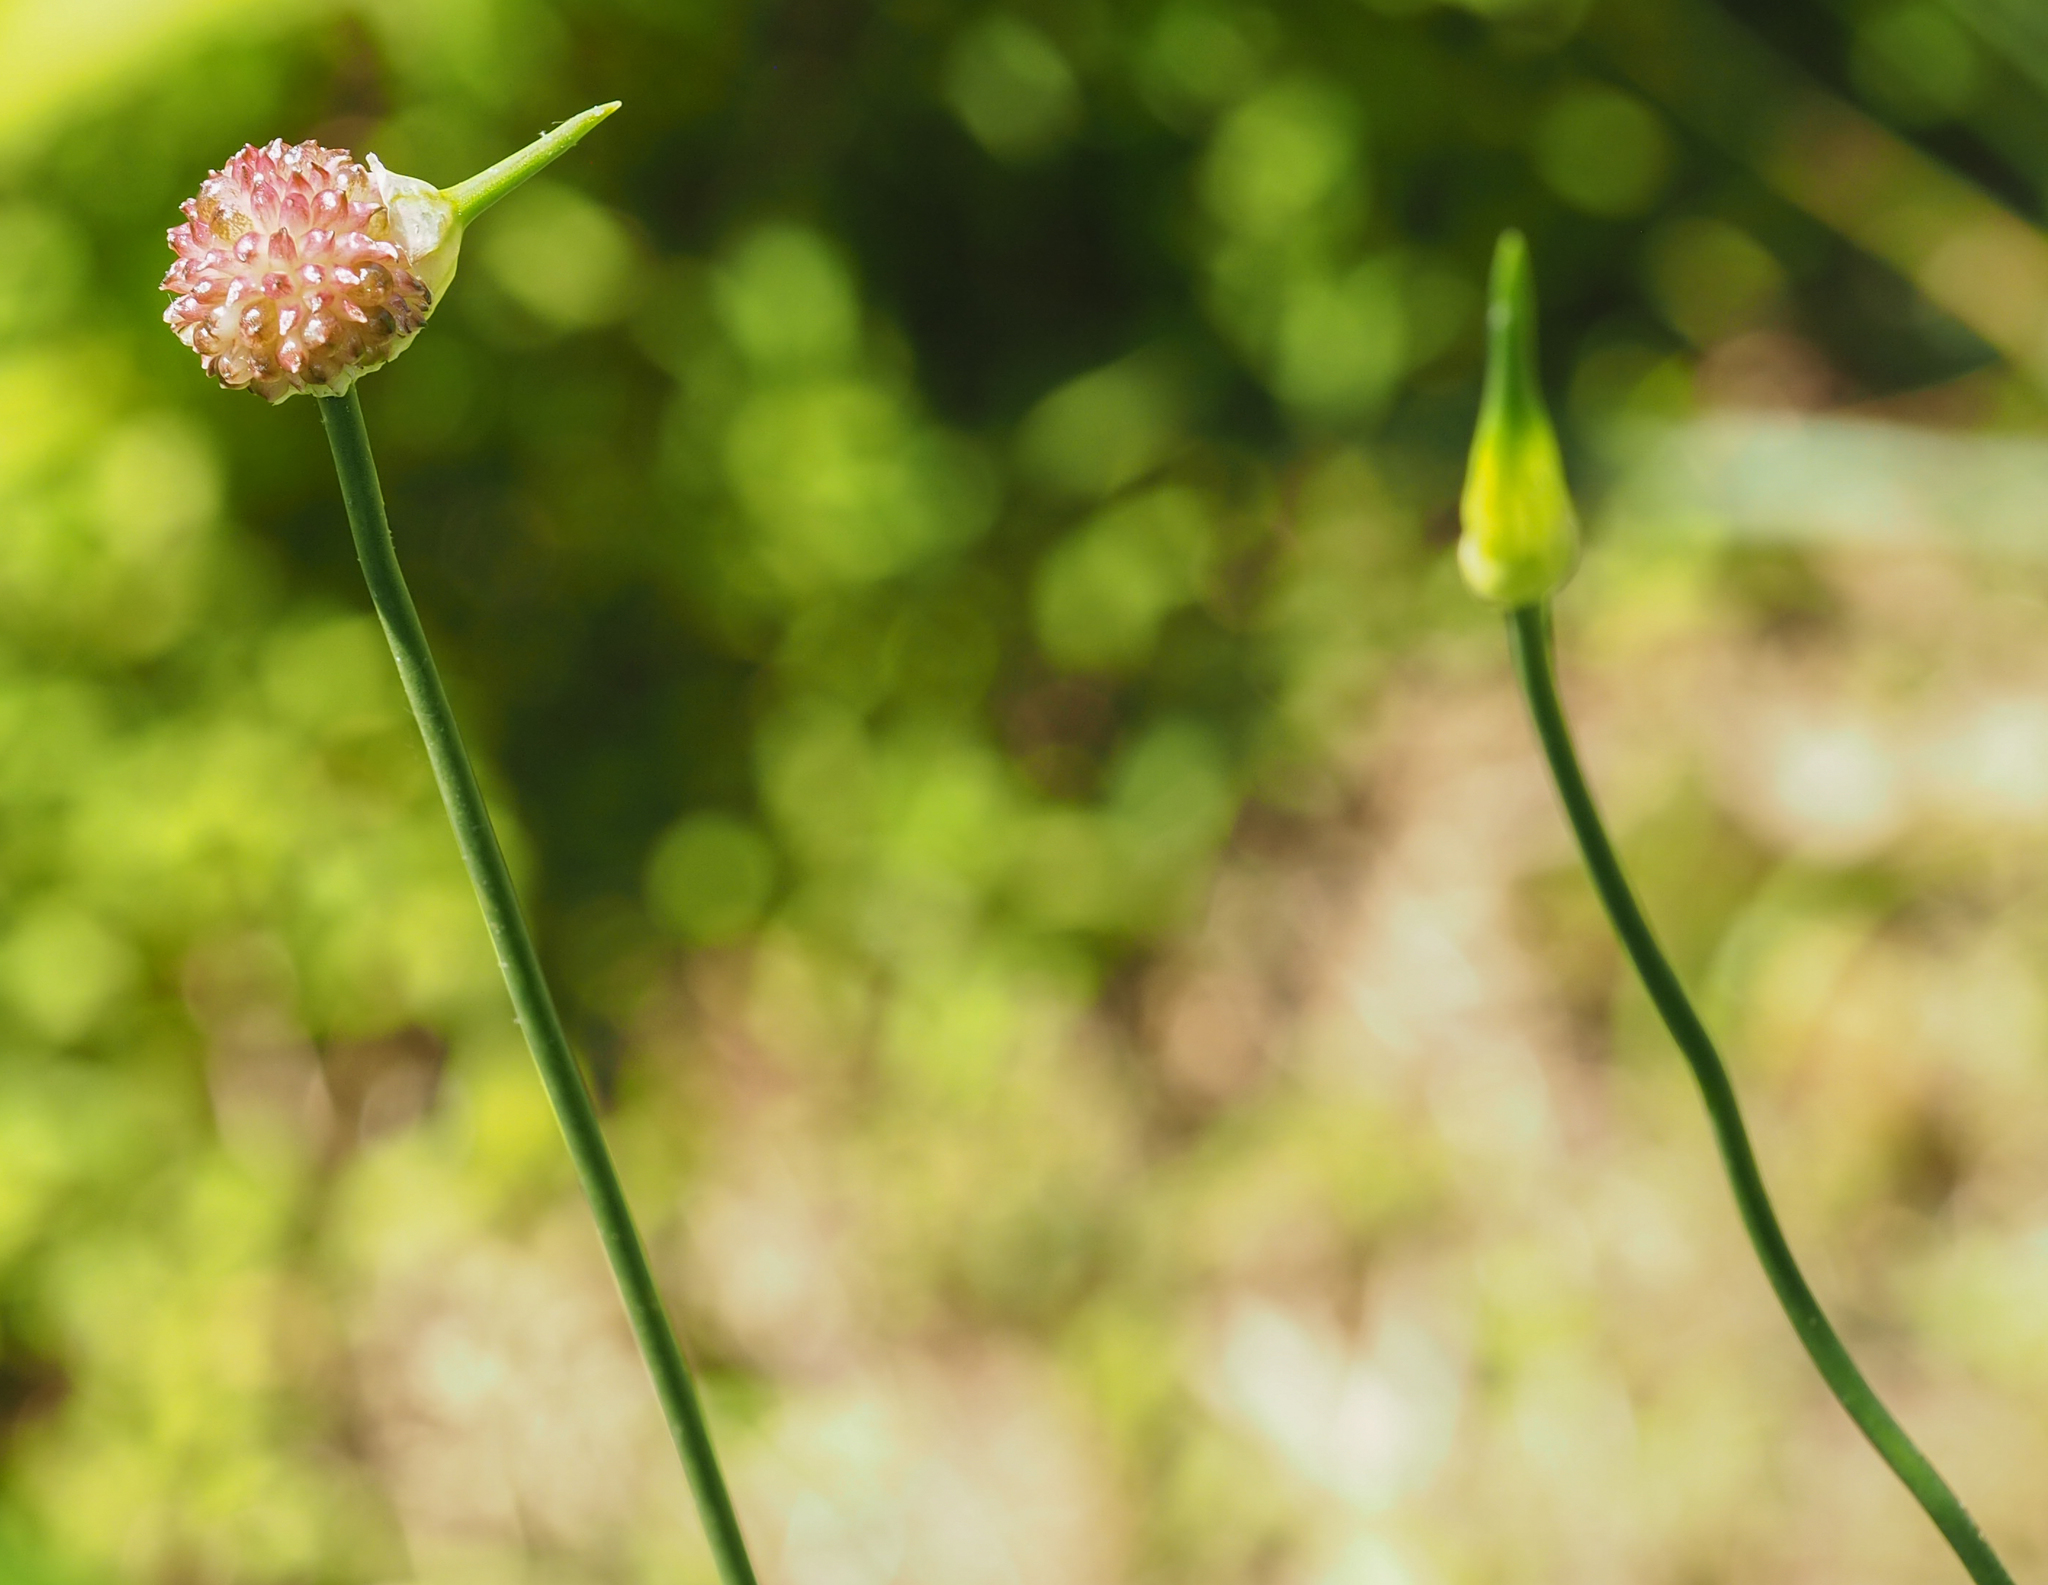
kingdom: Plantae
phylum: Tracheophyta
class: Liliopsida
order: Asparagales
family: Amaryllidaceae
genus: Allium
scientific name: Allium vineale
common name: Crow garlic
